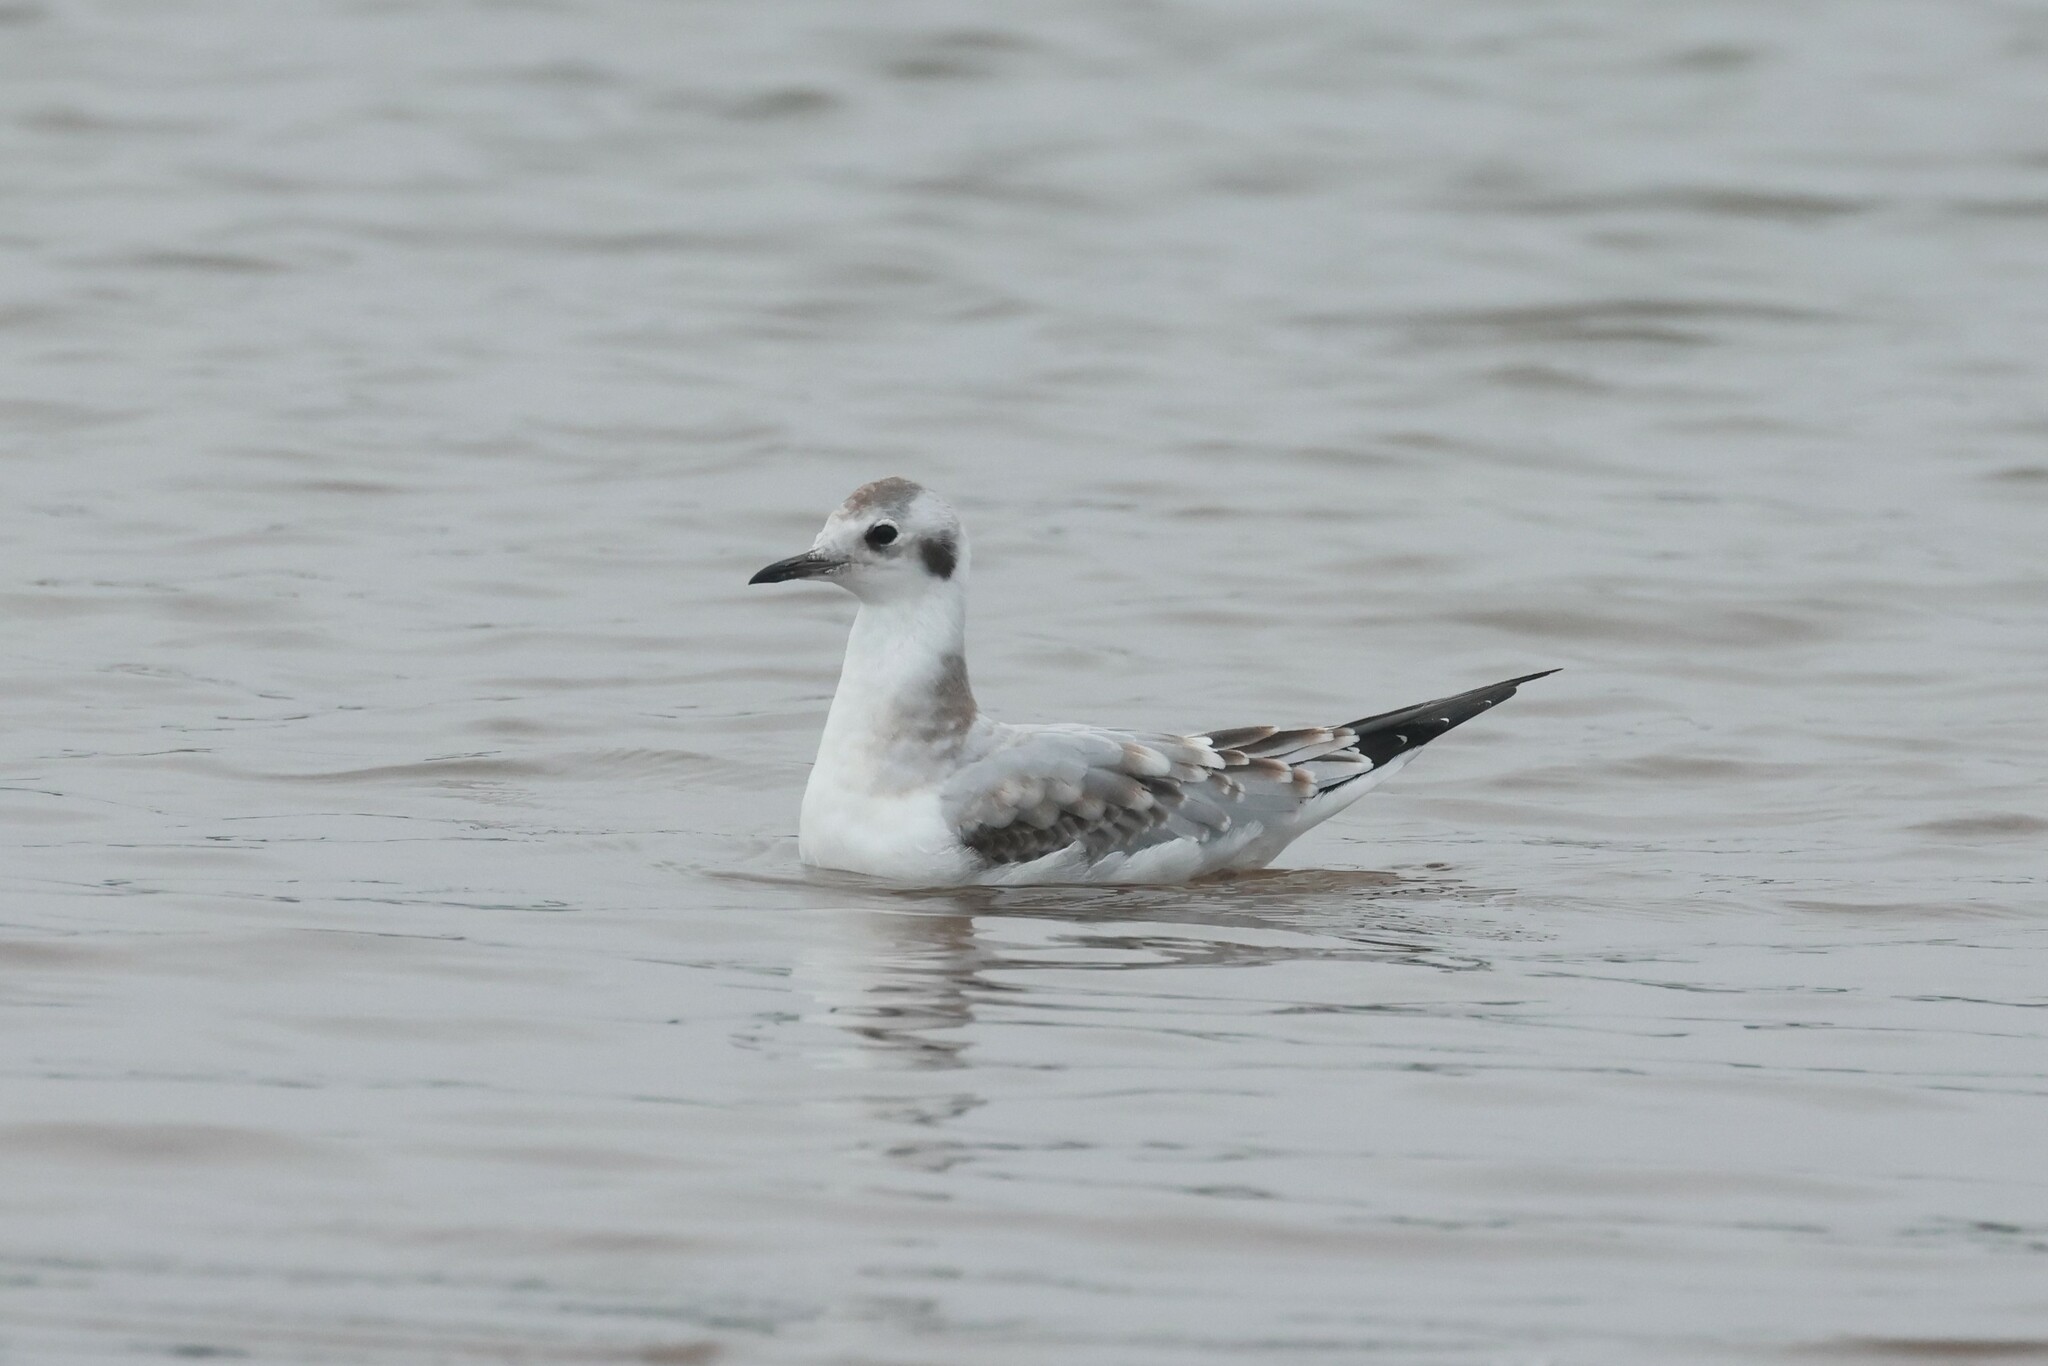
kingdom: Animalia
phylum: Chordata
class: Aves
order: Charadriiformes
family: Laridae
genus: Chroicocephalus
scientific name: Chroicocephalus philadelphia
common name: Bonaparte's gull
